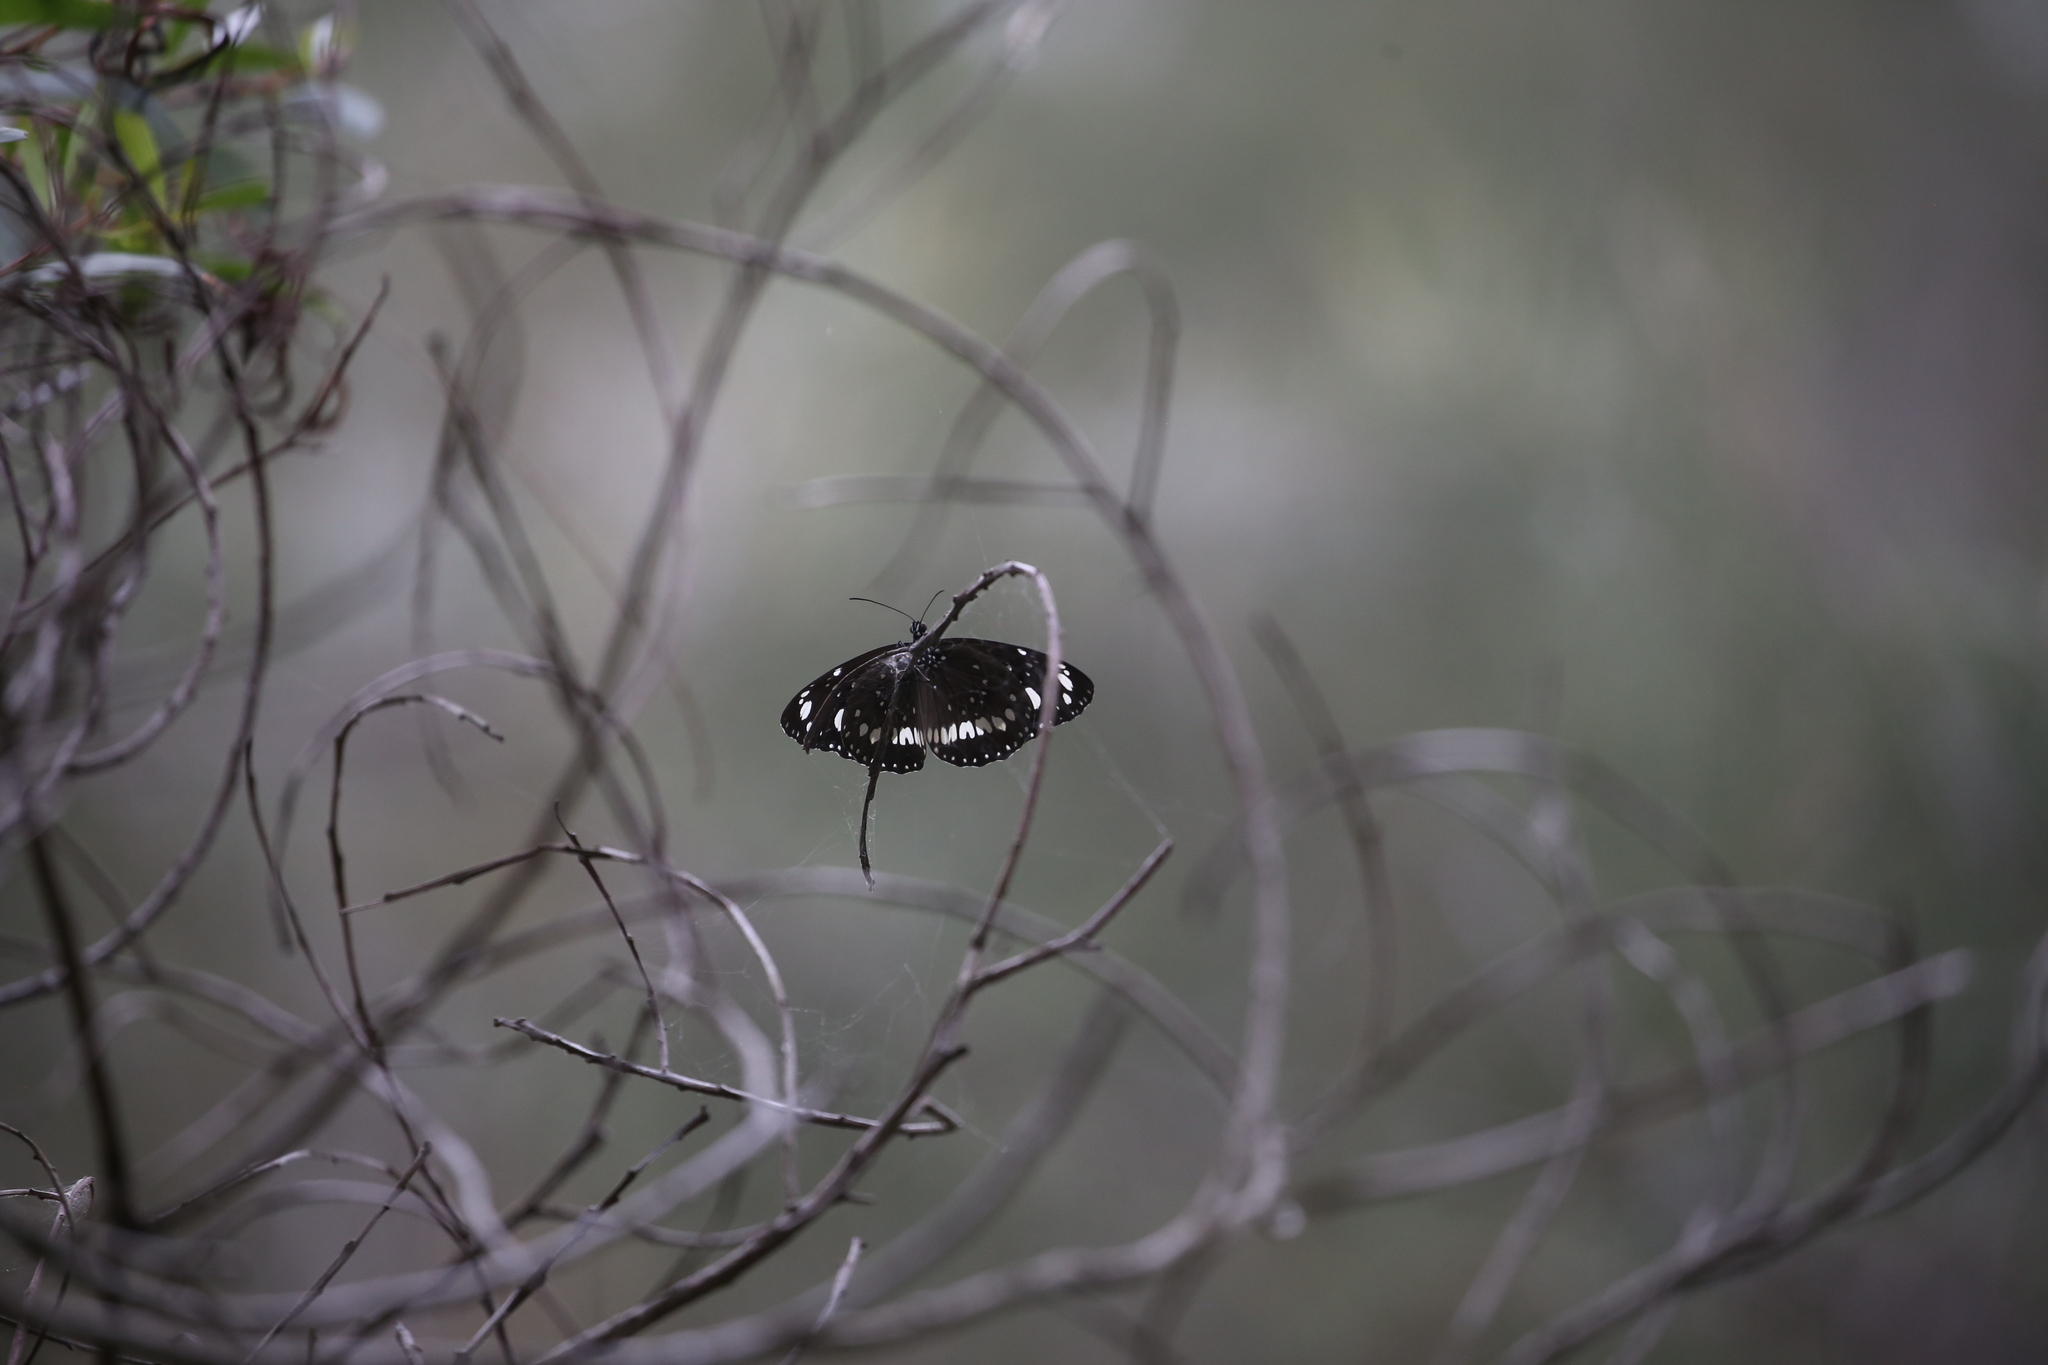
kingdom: Animalia
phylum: Arthropoda
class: Insecta
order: Lepidoptera
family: Nymphalidae
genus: Euploea
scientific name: Euploea core
